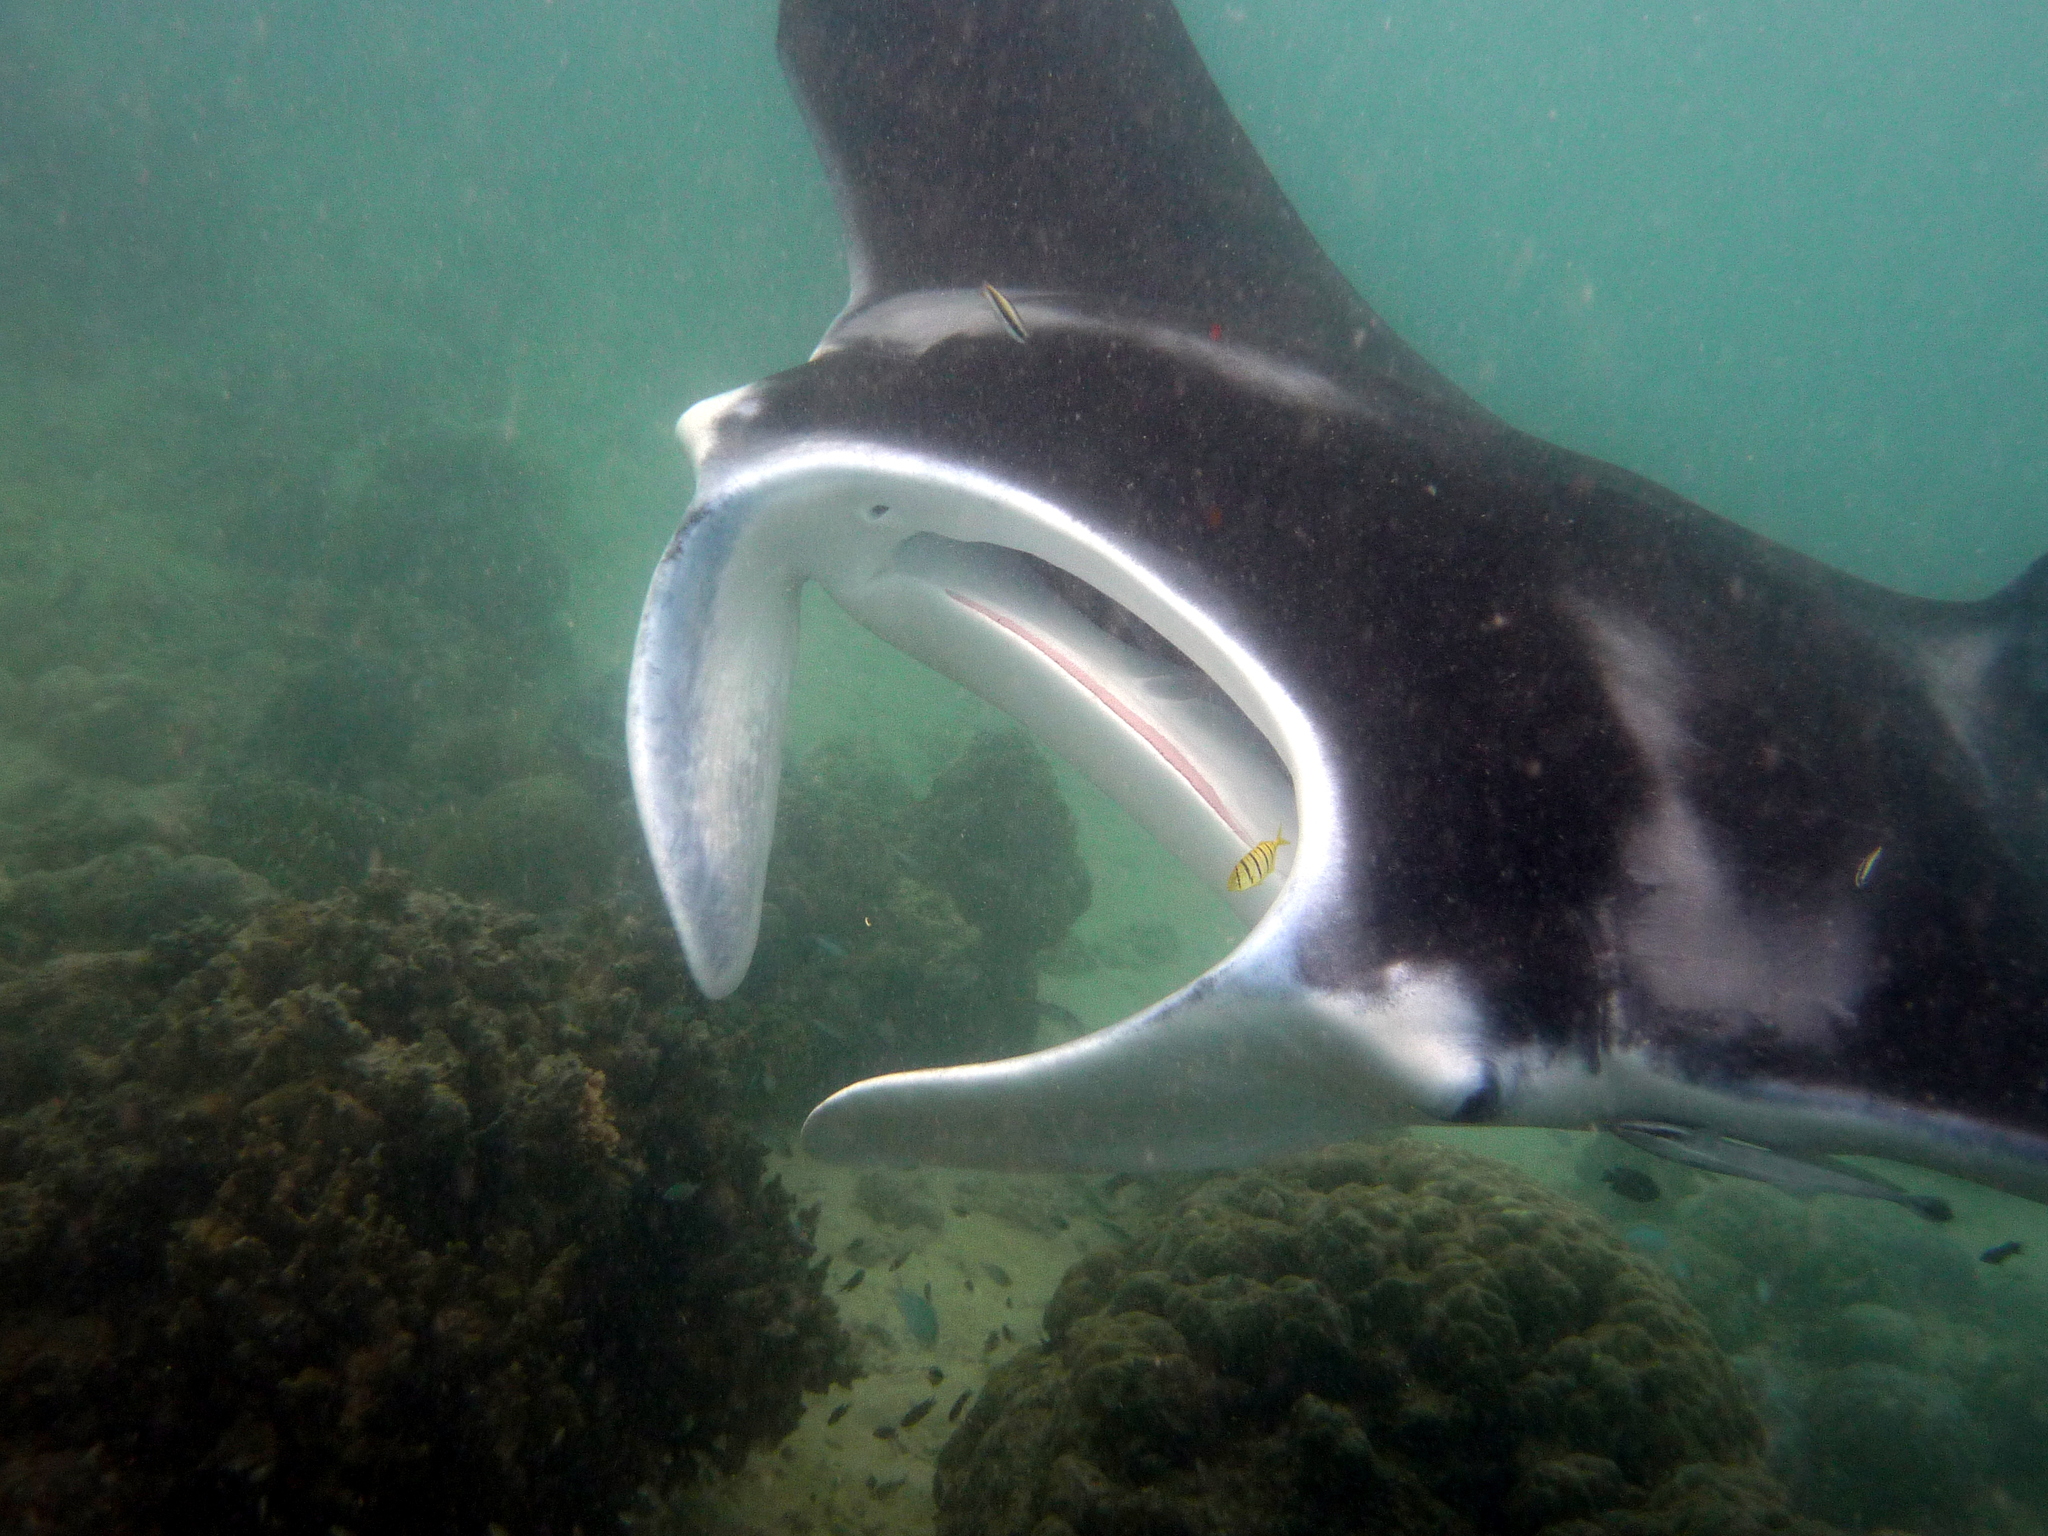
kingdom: Animalia
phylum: Chordata
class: Elasmobranchii
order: Myliobatiformes
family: Myliobatidae
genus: Mobula
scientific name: Mobula alfredi
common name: Reef manta ray
